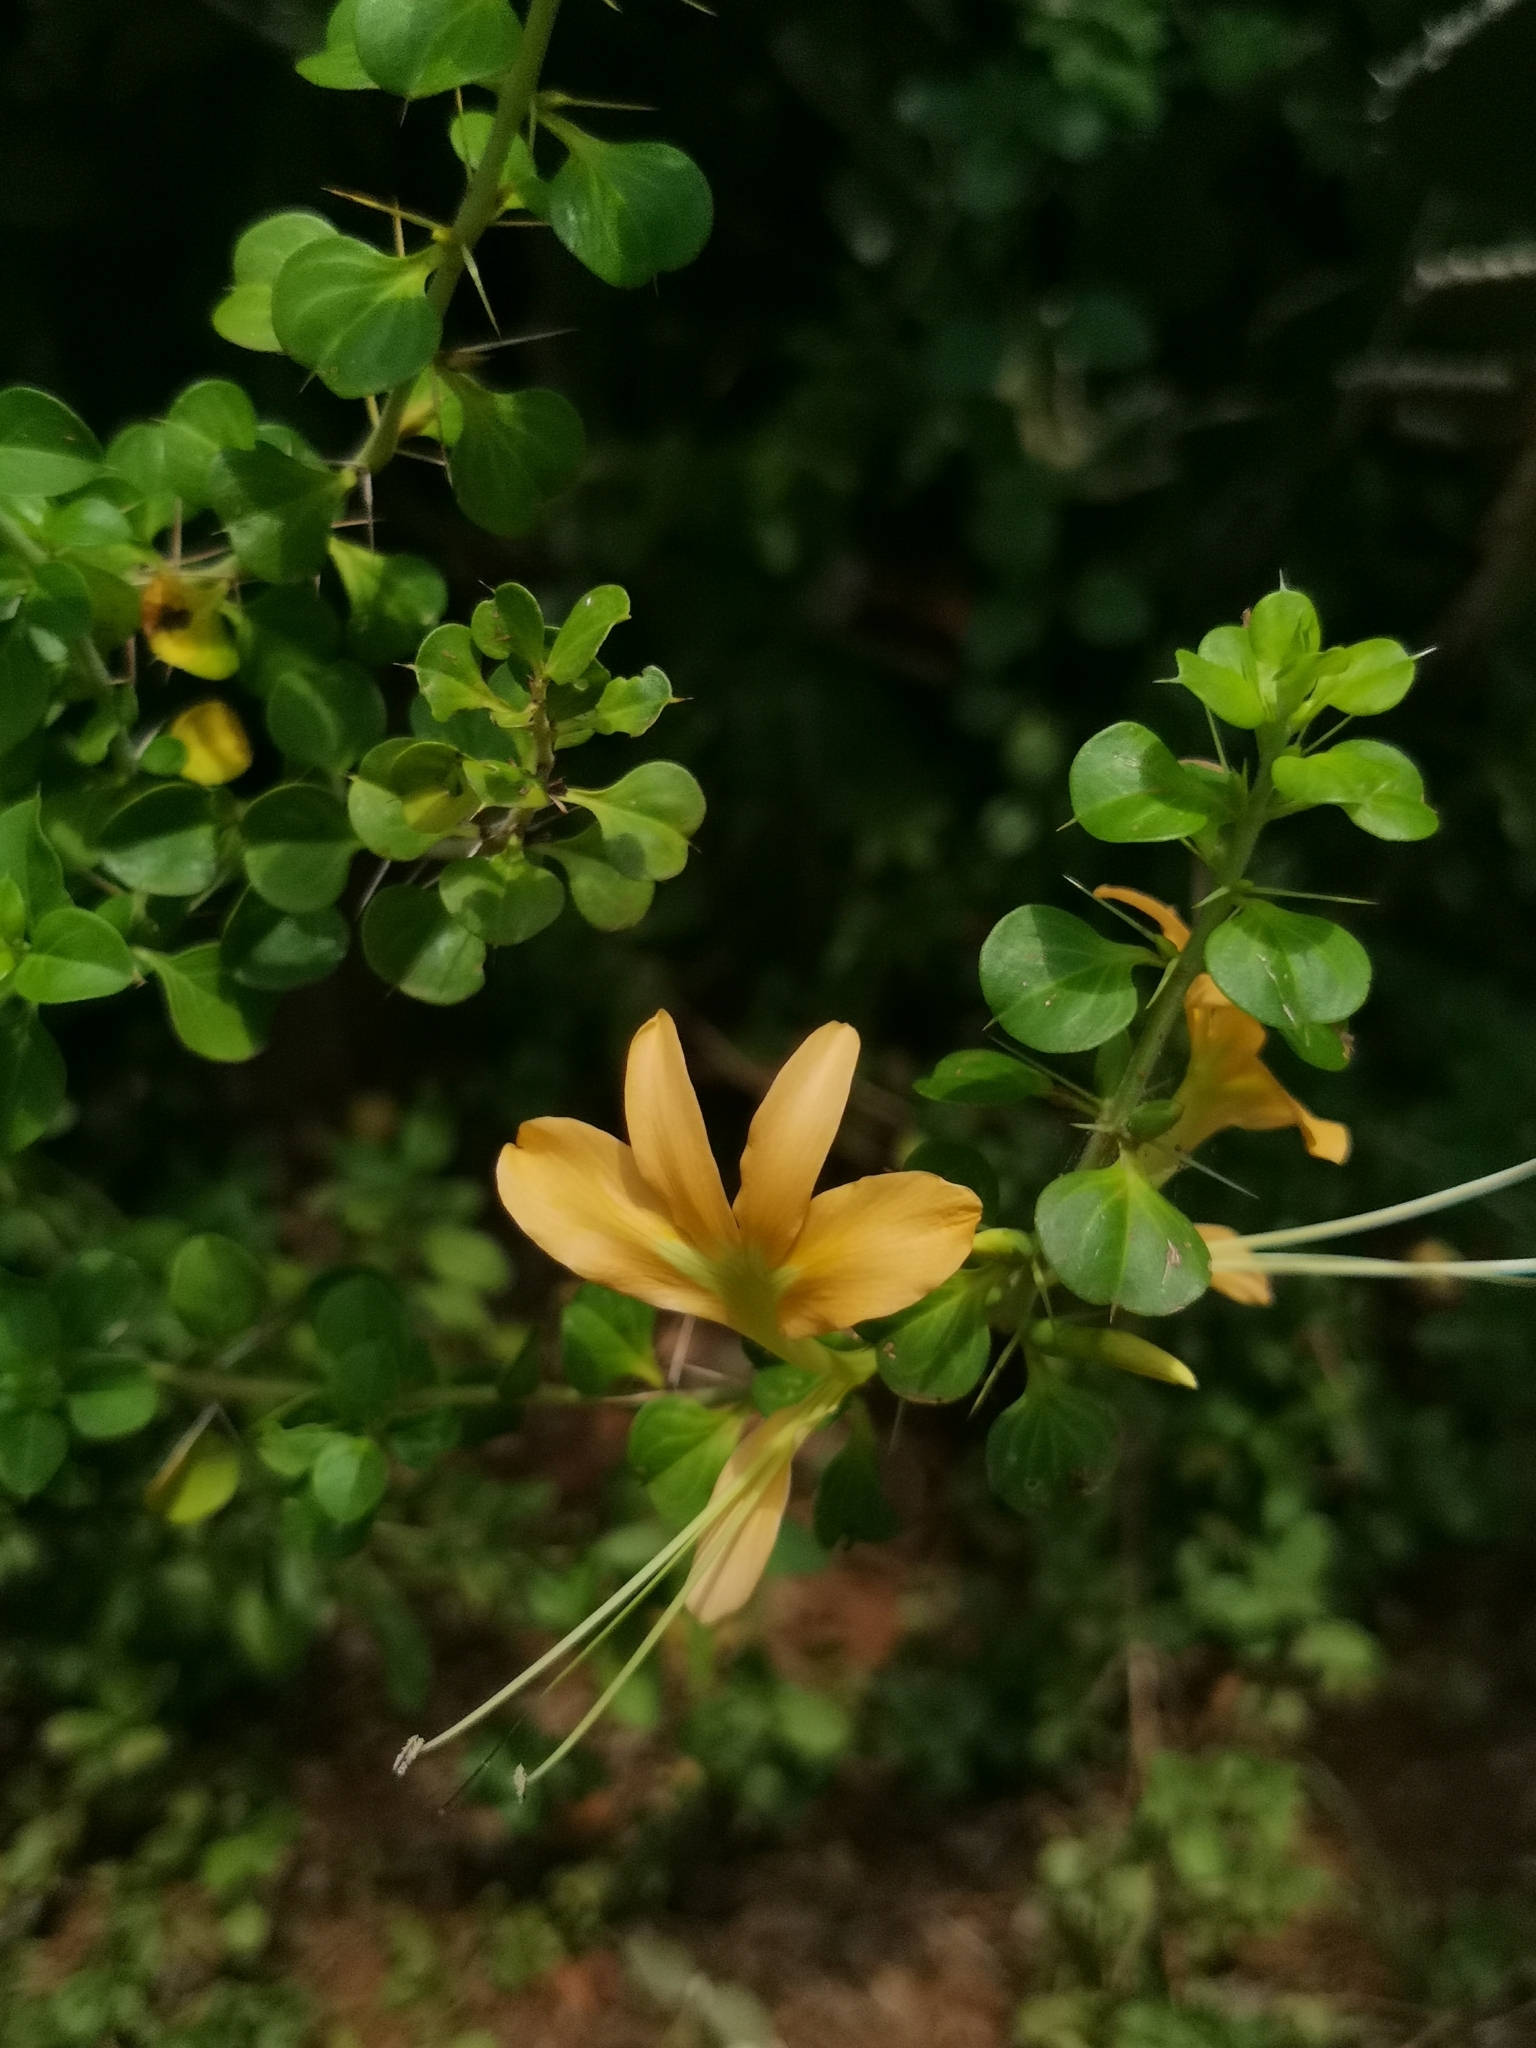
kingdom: Plantae
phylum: Tracheophyta
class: Magnoliopsida
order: Lamiales
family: Acanthaceae
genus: Barleria
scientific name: Barleria rotundifolia
